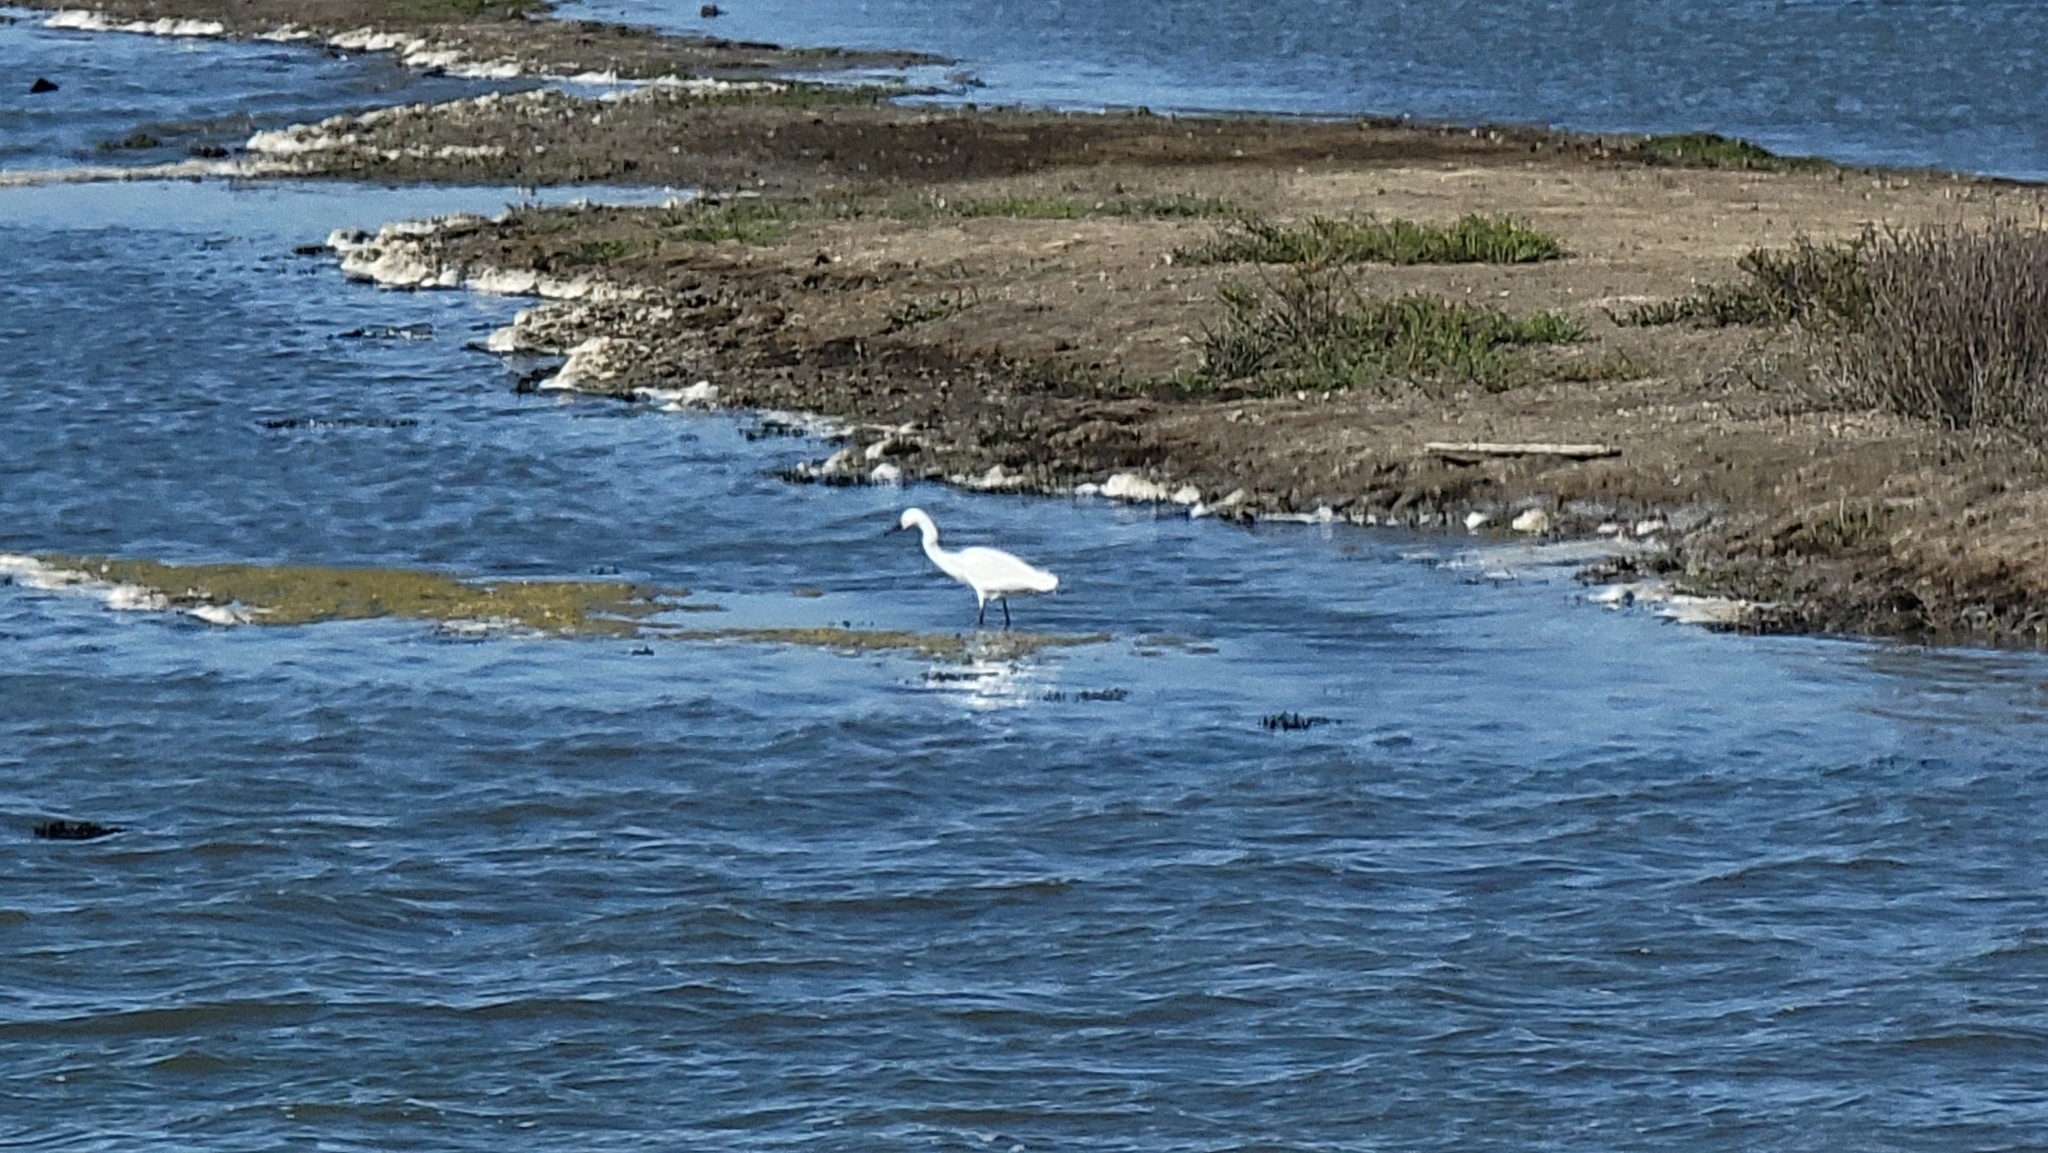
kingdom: Animalia
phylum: Chordata
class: Aves
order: Pelecaniformes
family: Ardeidae
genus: Egretta
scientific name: Egretta thula
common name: Snowy egret
